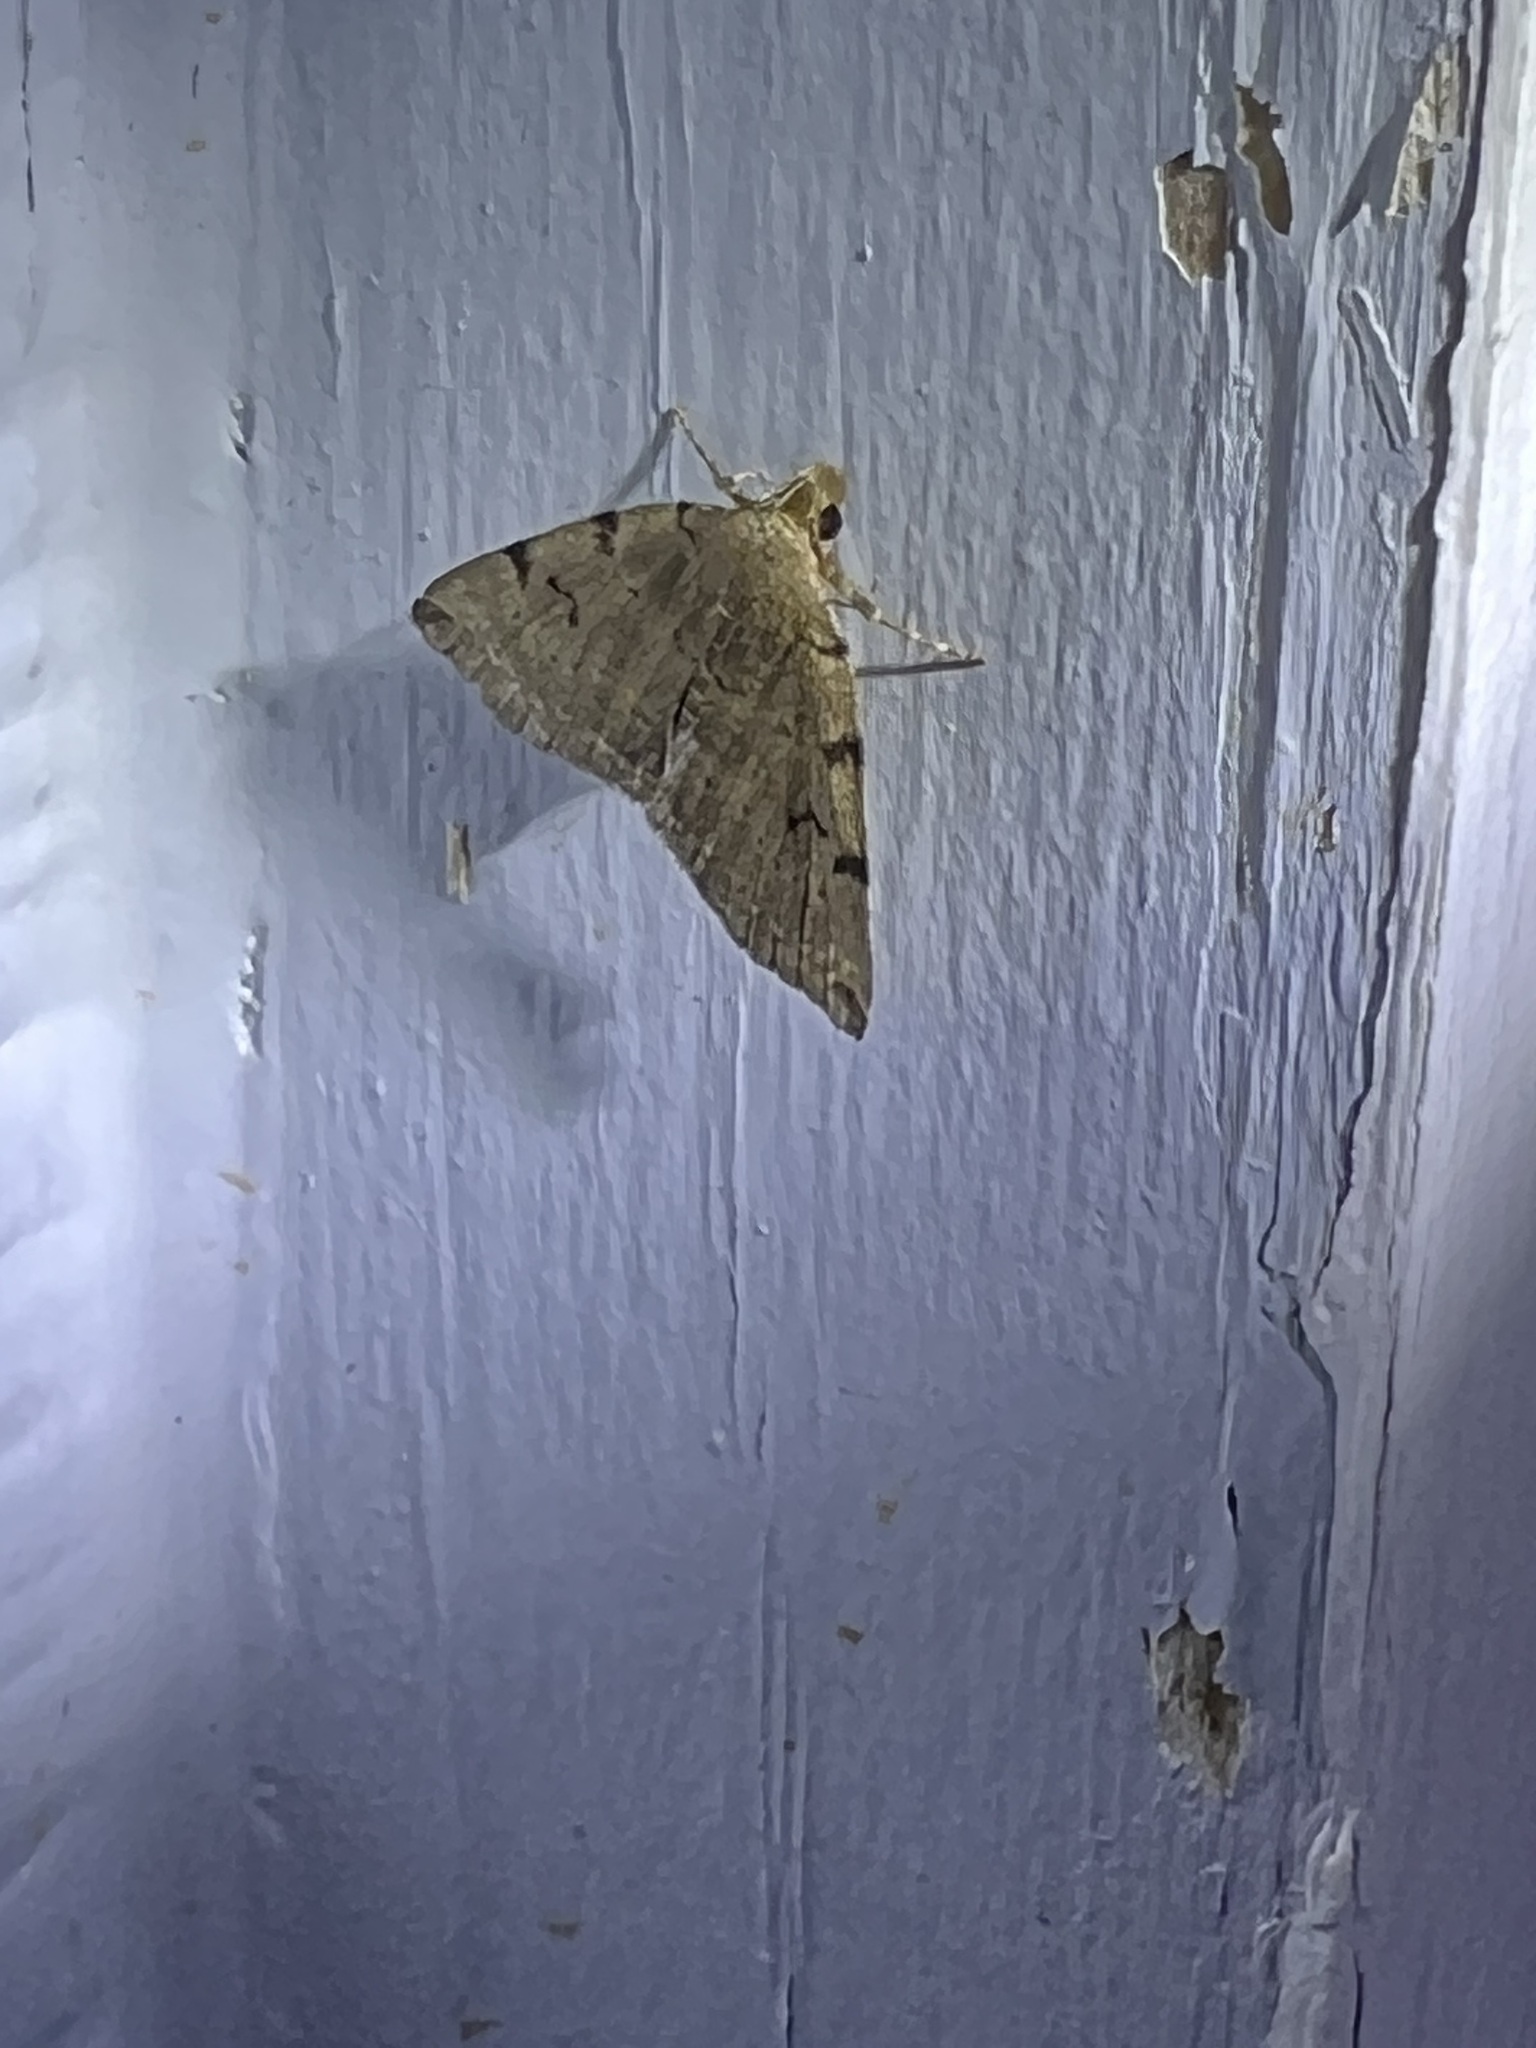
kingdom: Animalia
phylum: Arthropoda
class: Insecta
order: Lepidoptera
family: Erebidae
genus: Zanclognatha
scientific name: Zanclognatha lituralis
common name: Lettered fan-foot
